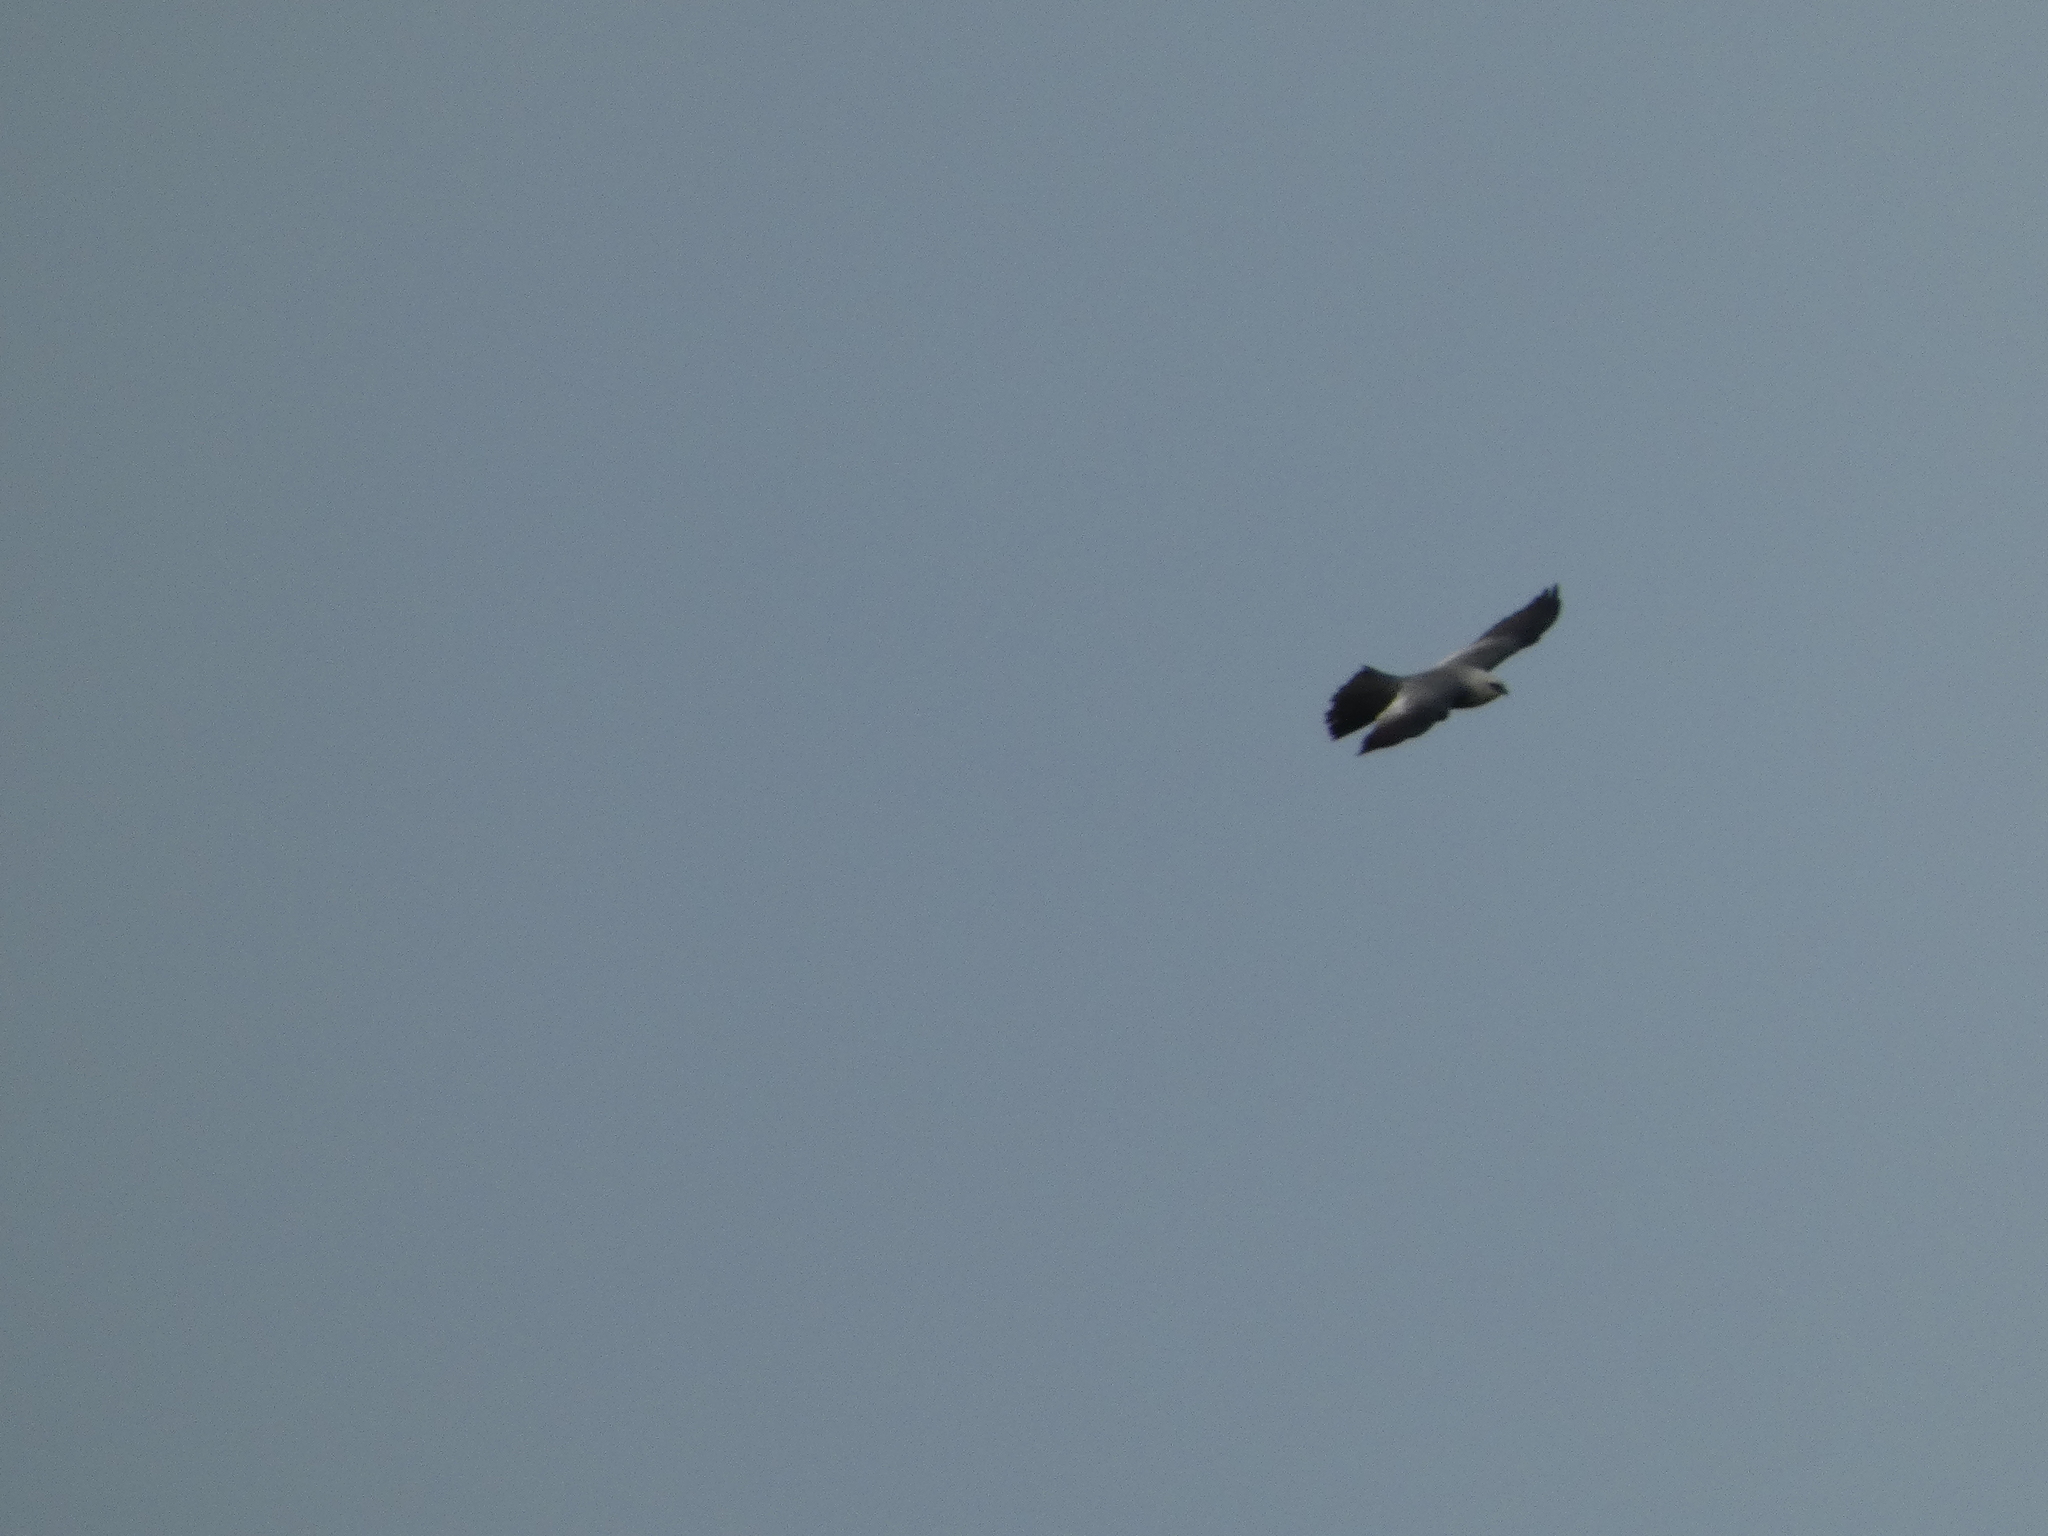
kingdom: Animalia
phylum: Chordata
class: Aves
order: Accipitriformes
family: Accipitridae
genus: Ictinia
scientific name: Ictinia mississippiensis
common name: Mississippi kite
